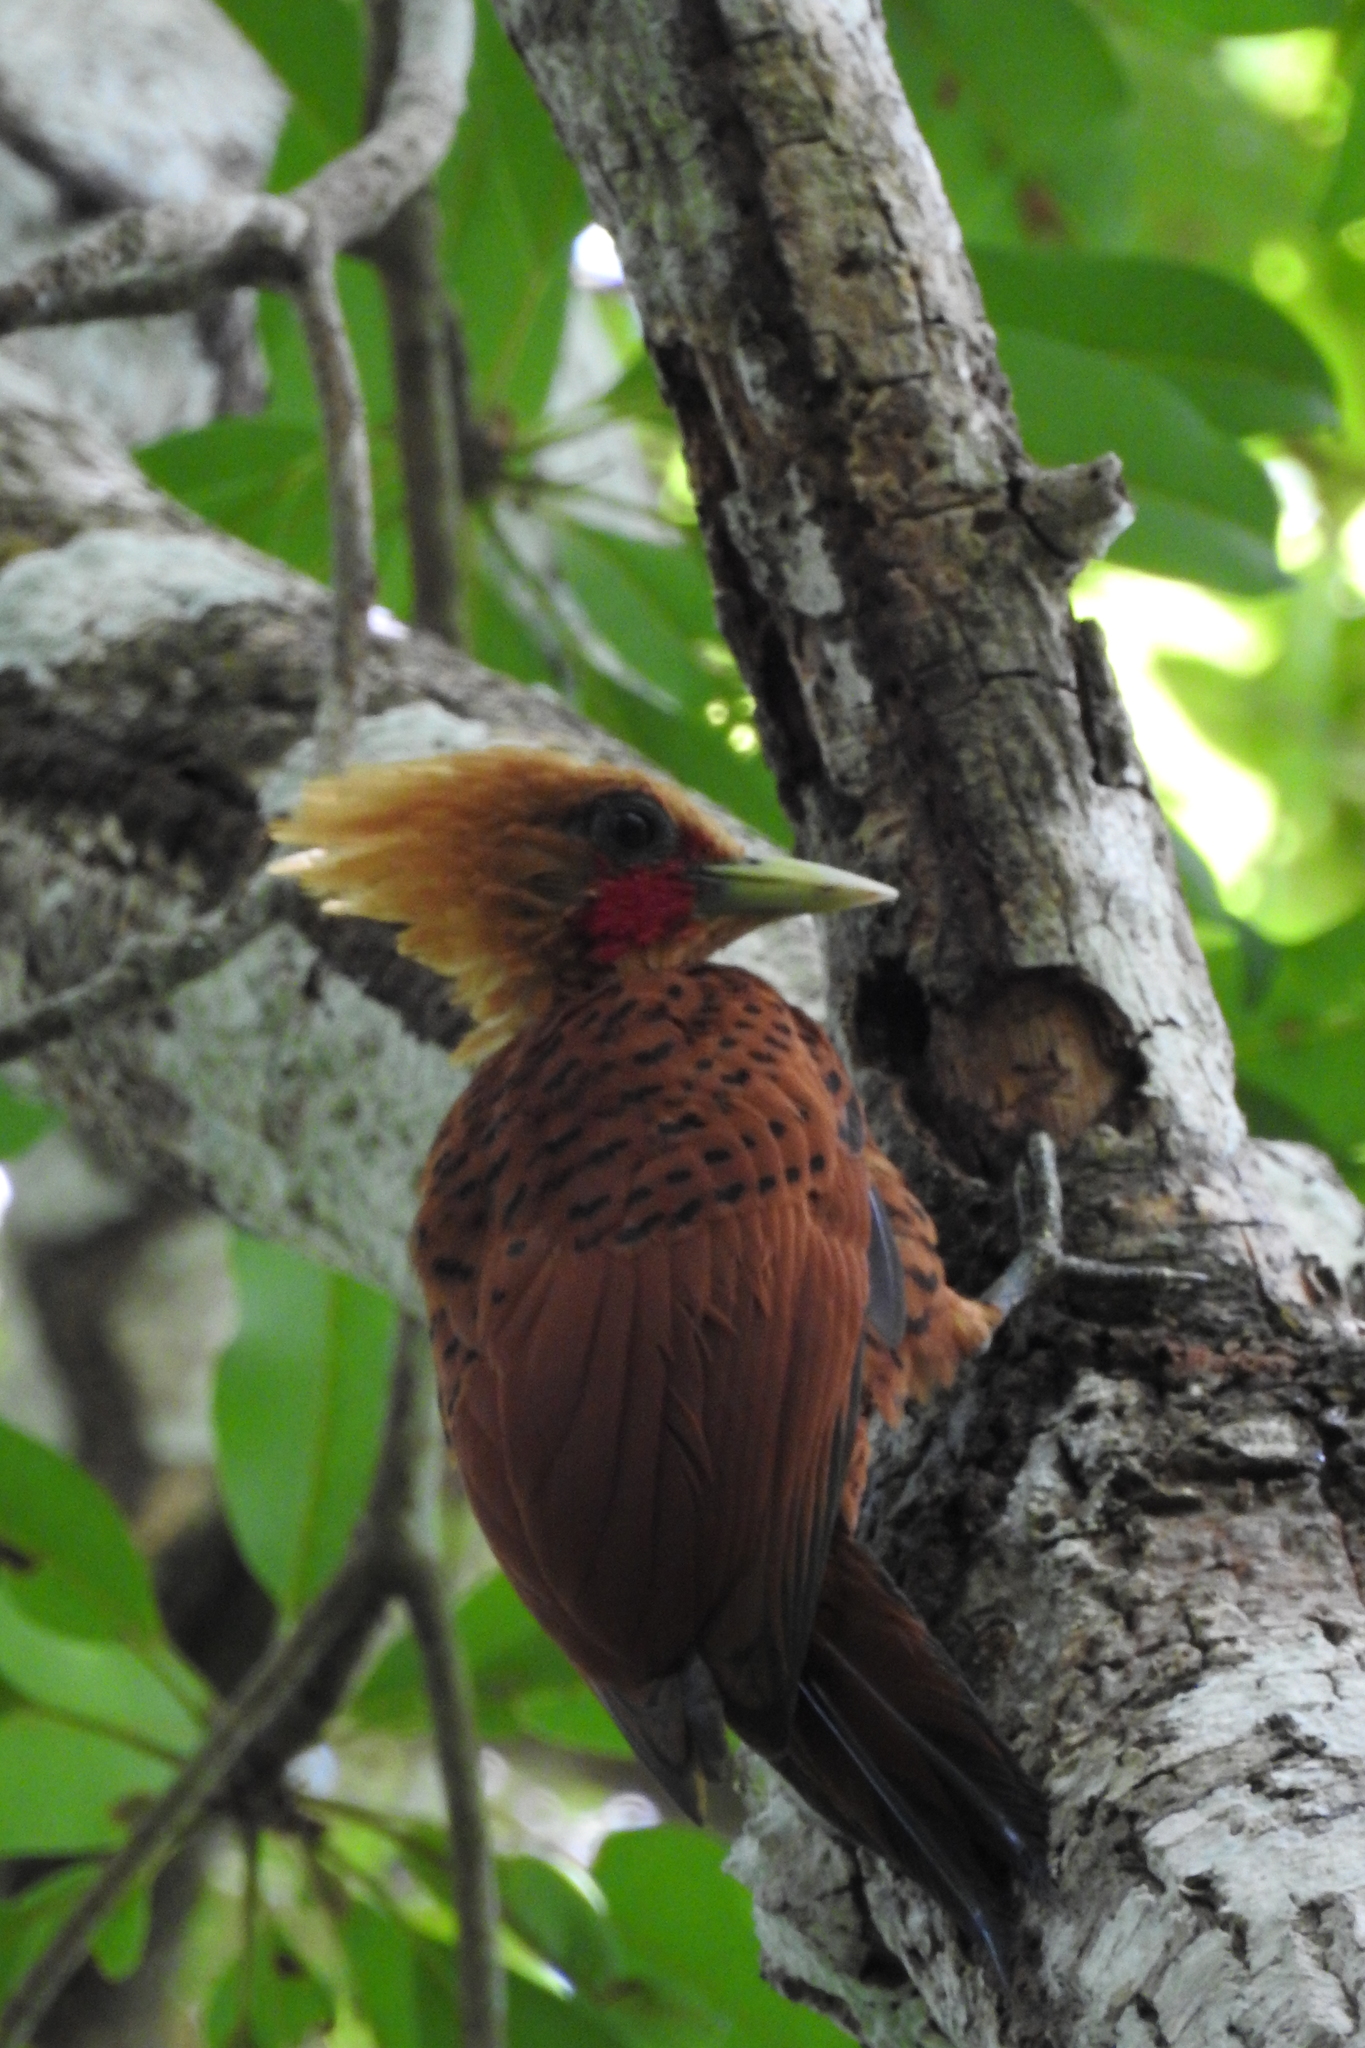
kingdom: Animalia
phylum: Chordata
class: Aves
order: Piciformes
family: Picidae
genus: Celeus
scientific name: Celeus castaneus
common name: Chestnut-colored woodpecker
